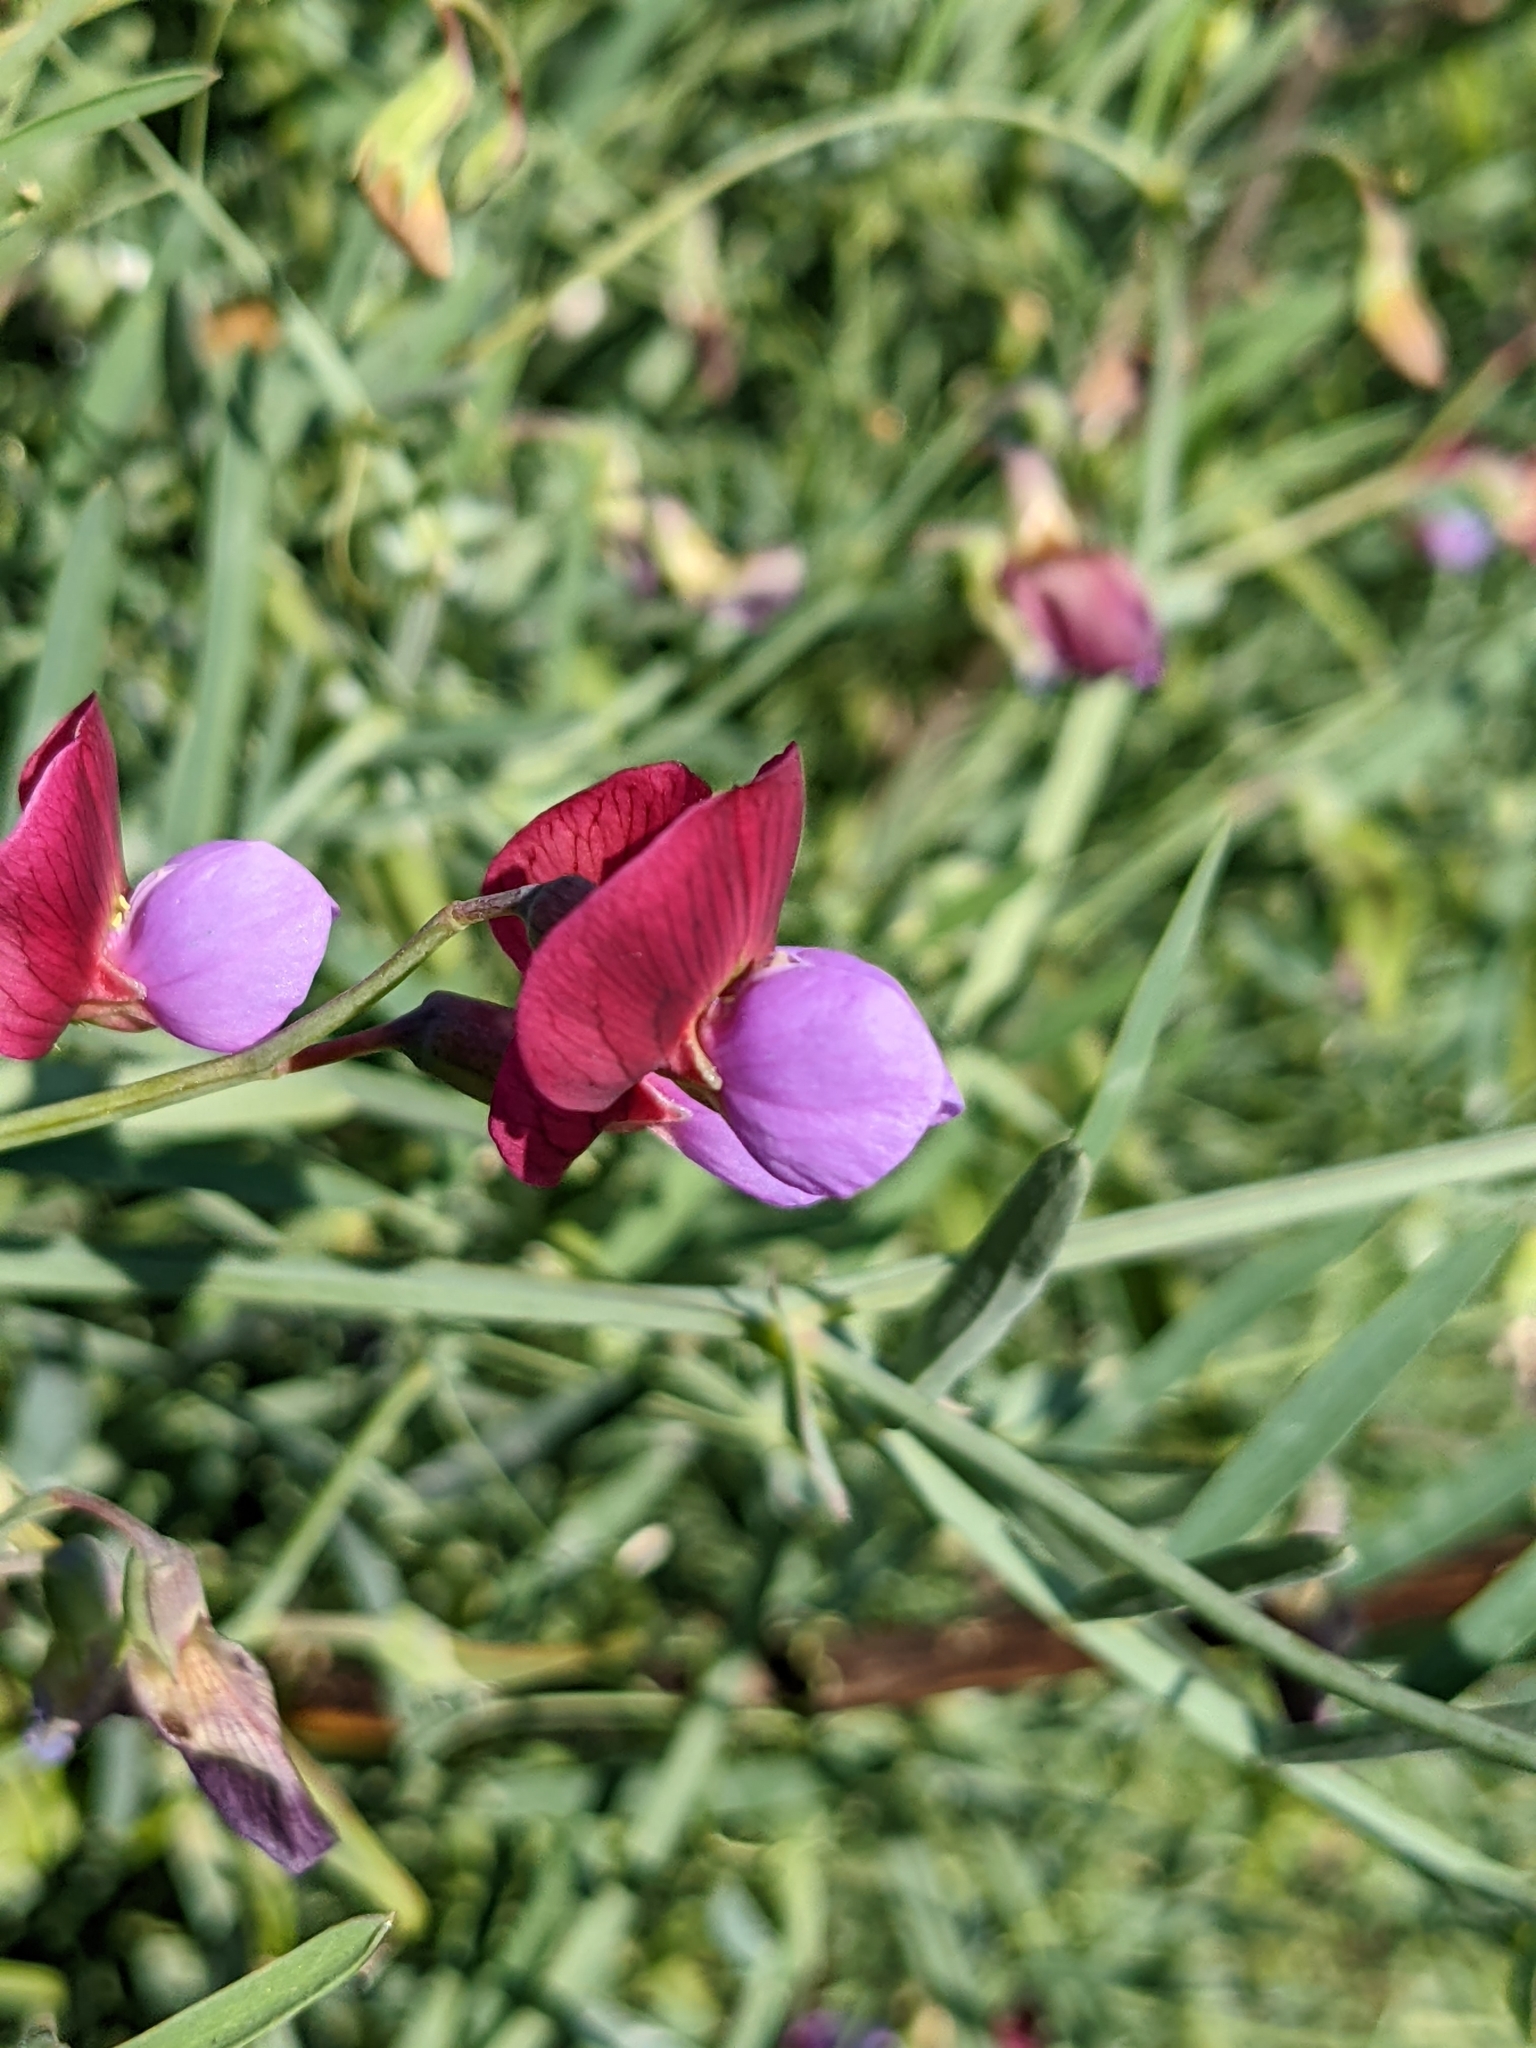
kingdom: Plantae
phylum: Tracheophyta
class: Magnoliopsida
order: Fabales
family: Fabaceae
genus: Lathyrus
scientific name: Lathyrus clymenum
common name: Spanish vetchling
